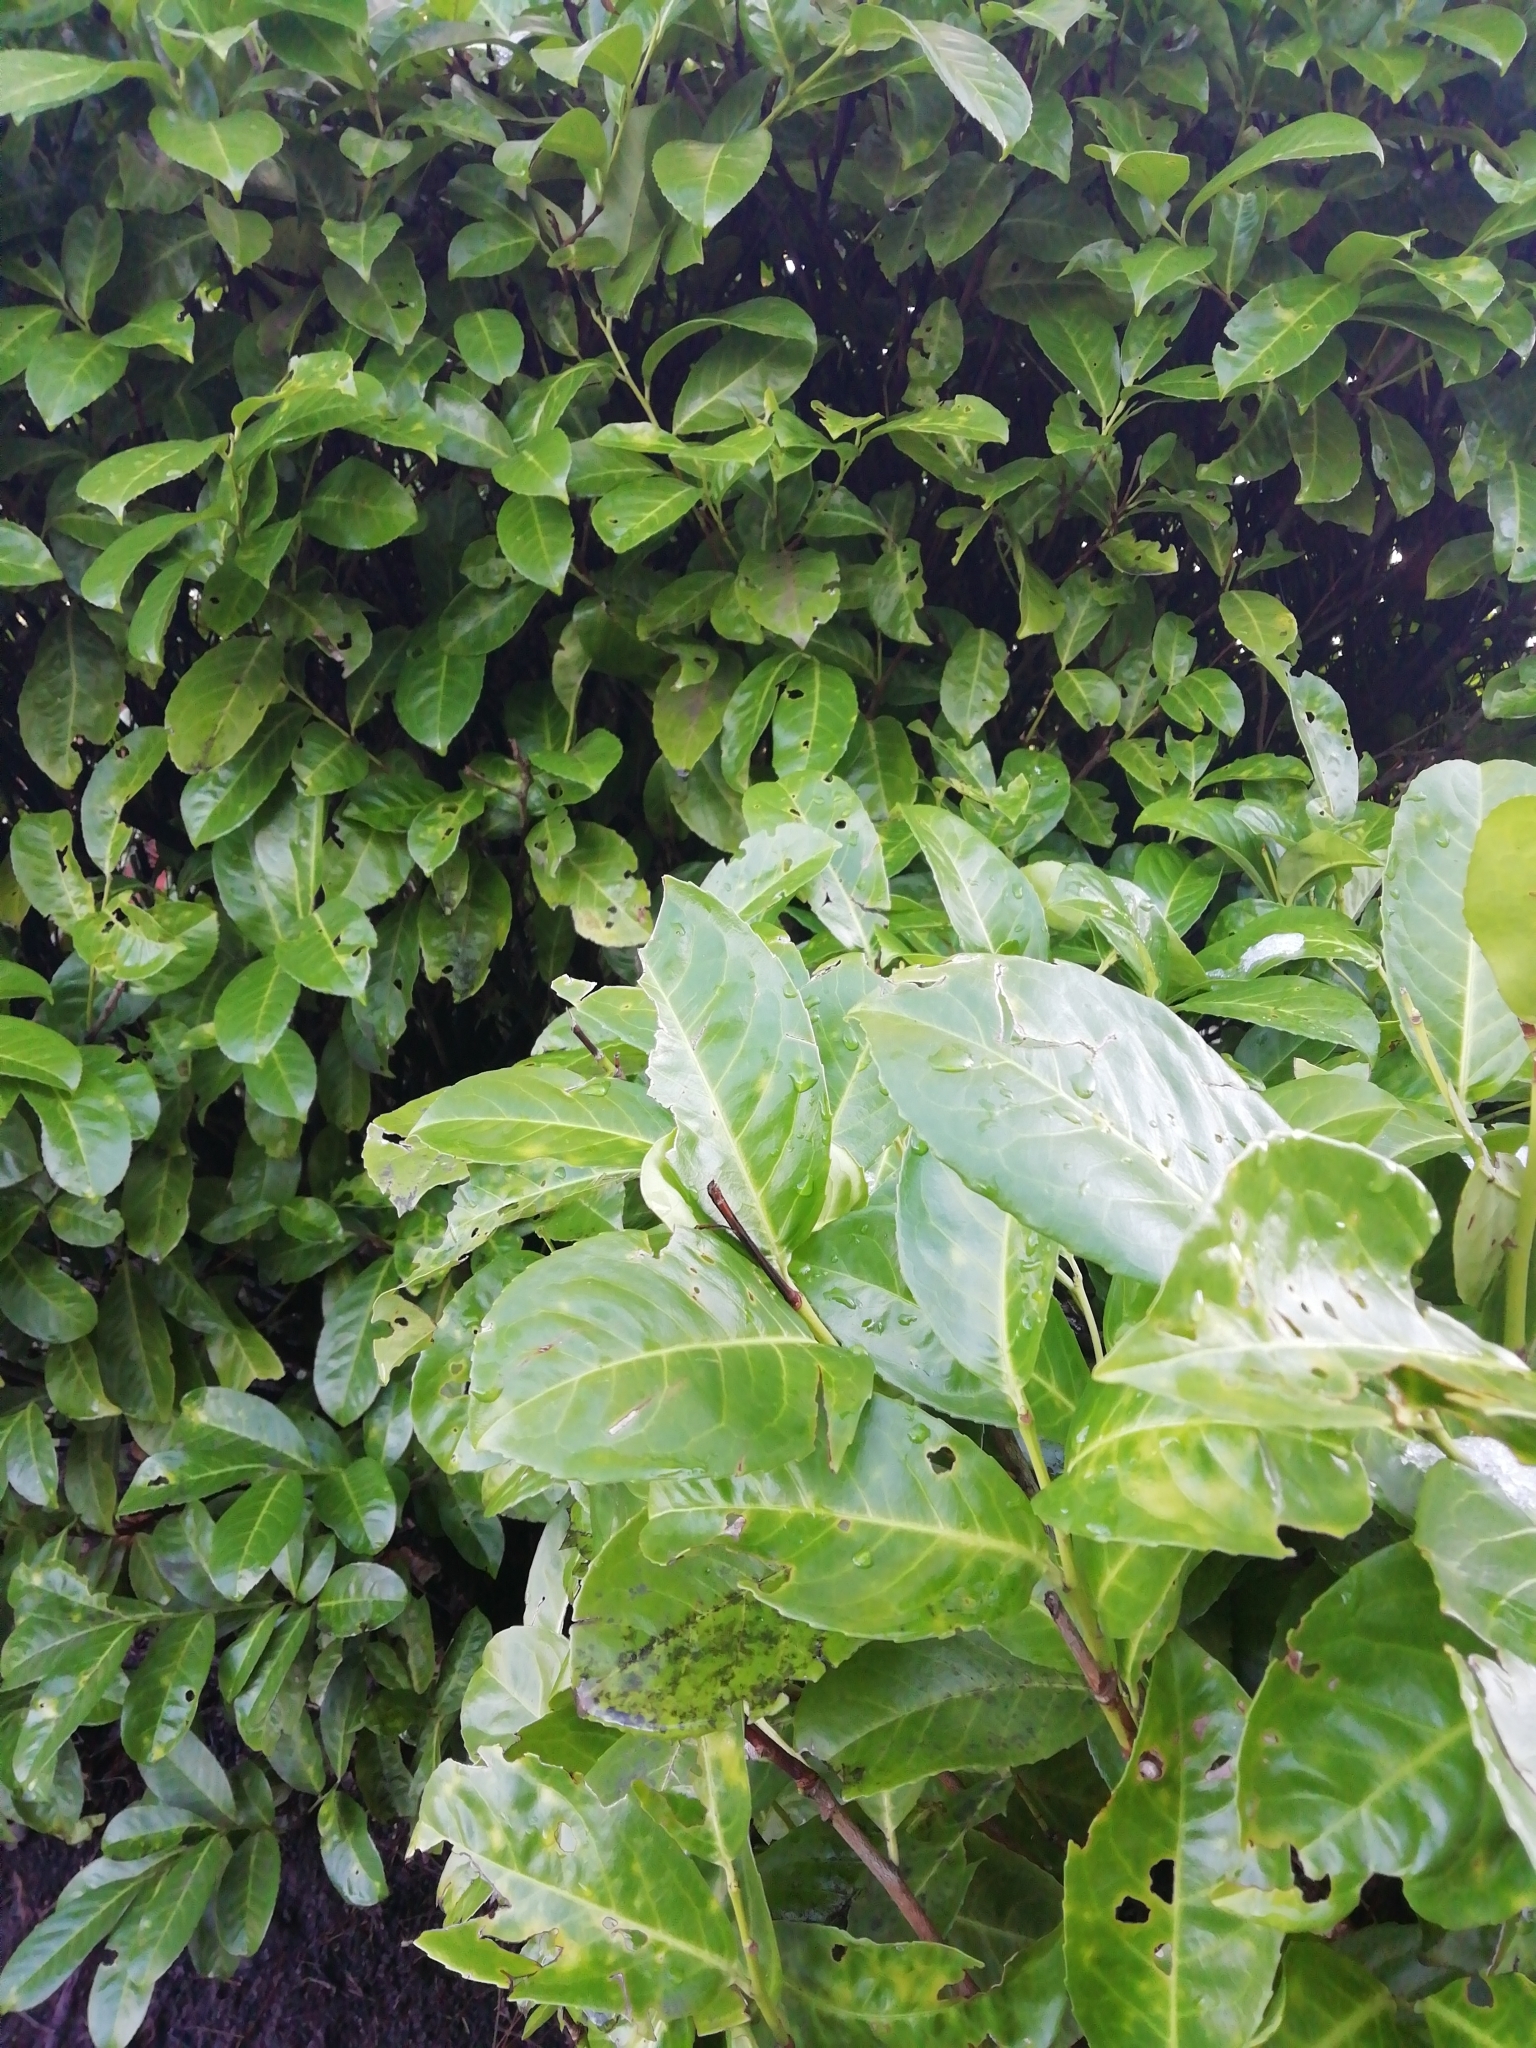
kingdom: Plantae
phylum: Tracheophyta
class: Magnoliopsida
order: Rosales
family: Rosaceae
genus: Prunus
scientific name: Prunus laurocerasus
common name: Cherry laurel
